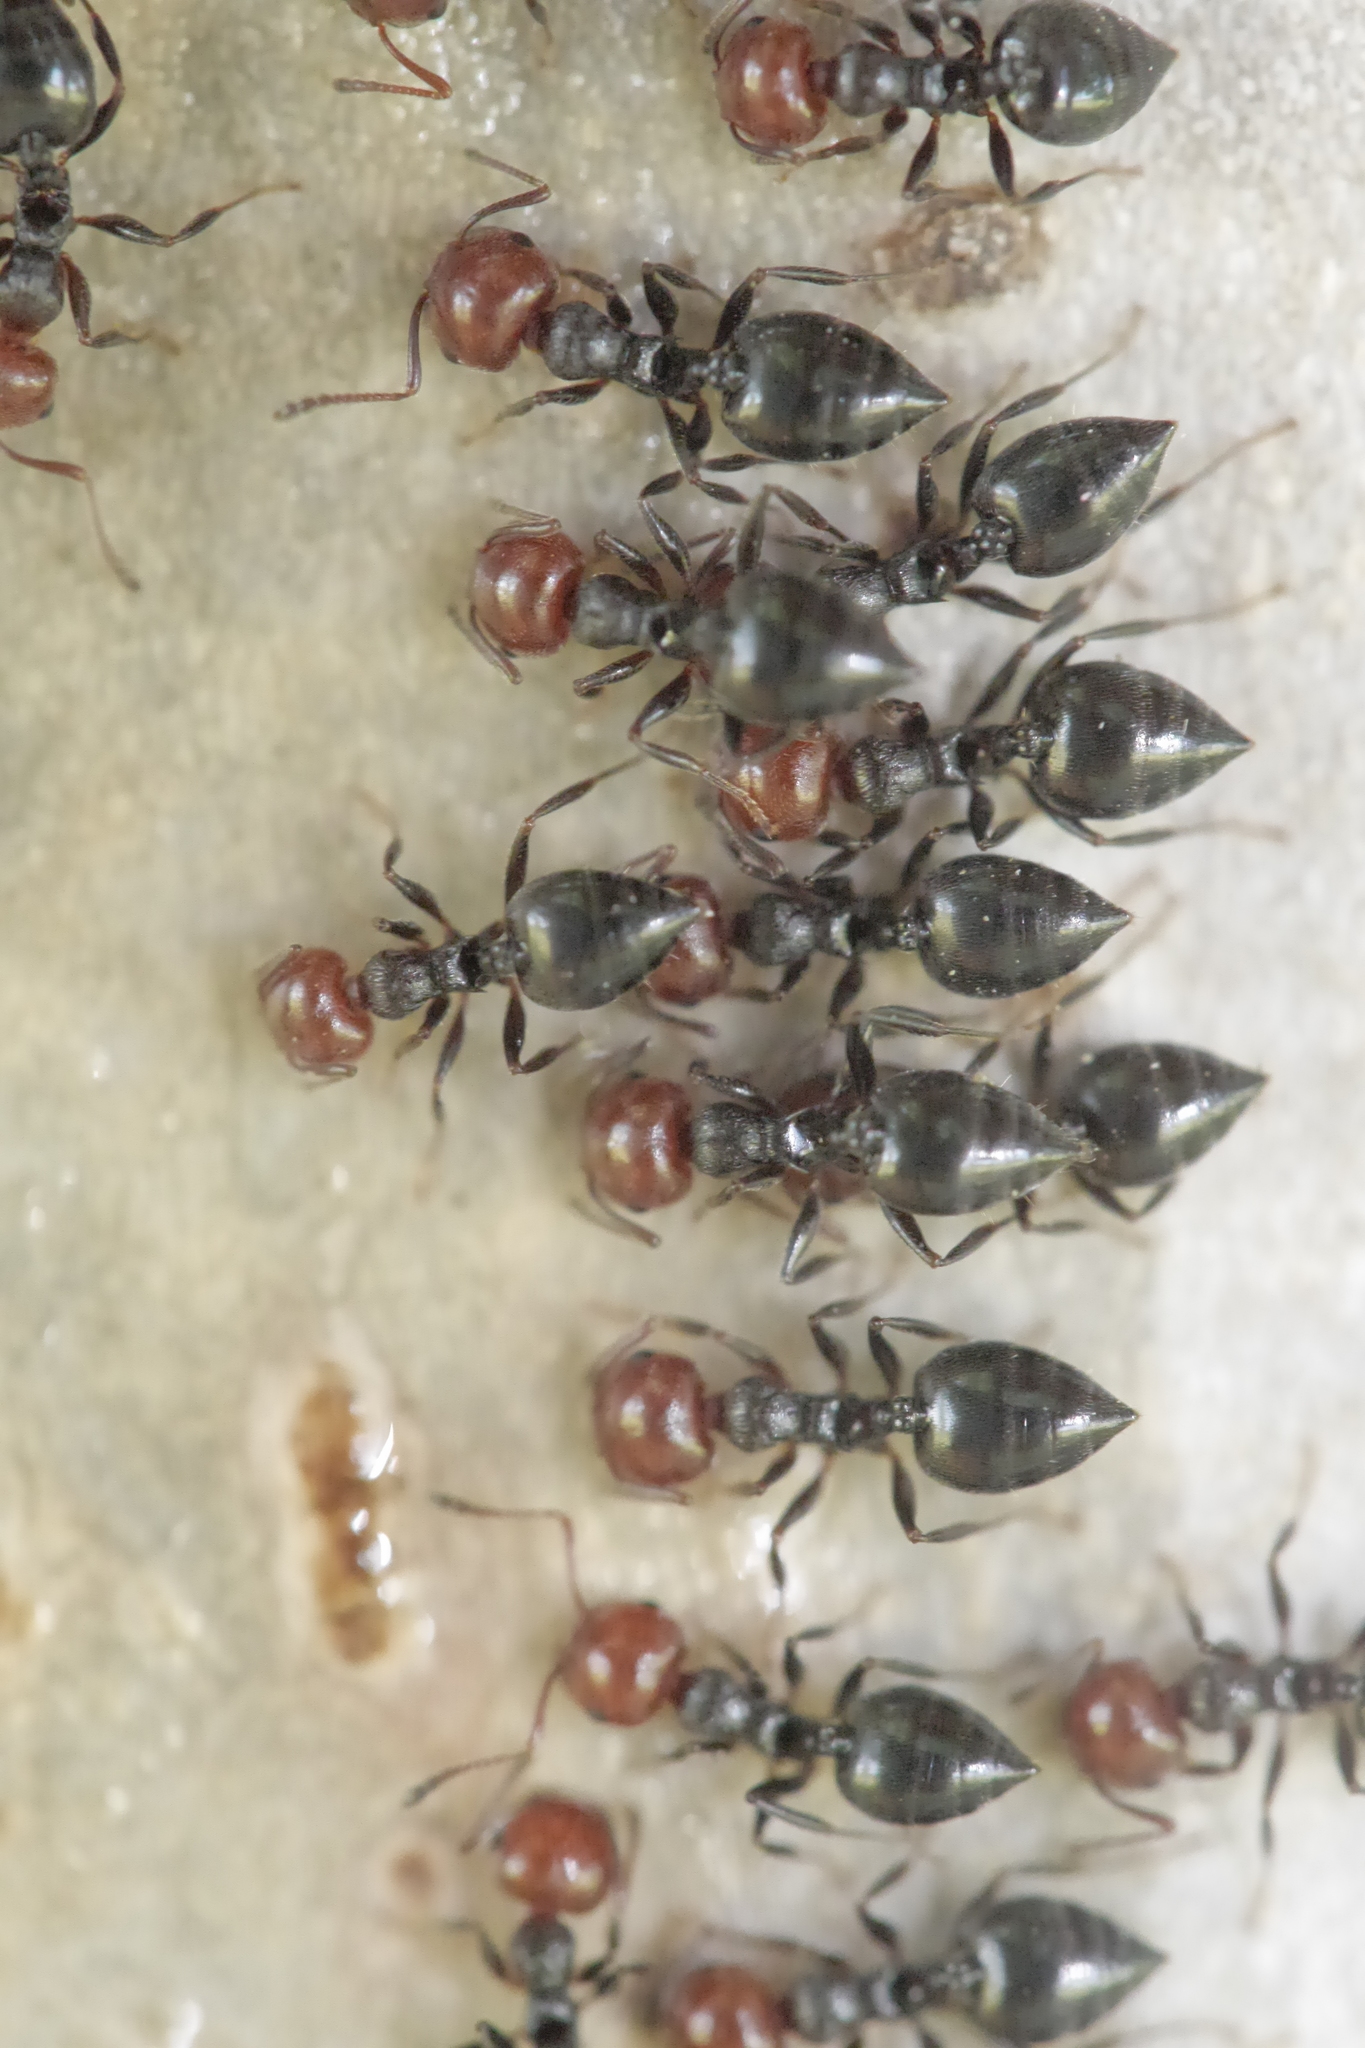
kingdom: Animalia
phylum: Arthropoda
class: Insecta
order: Hymenoptera
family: Formicidae
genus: Crematogaster
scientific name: Crematogaster scutellaris
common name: Fourmi du liège
